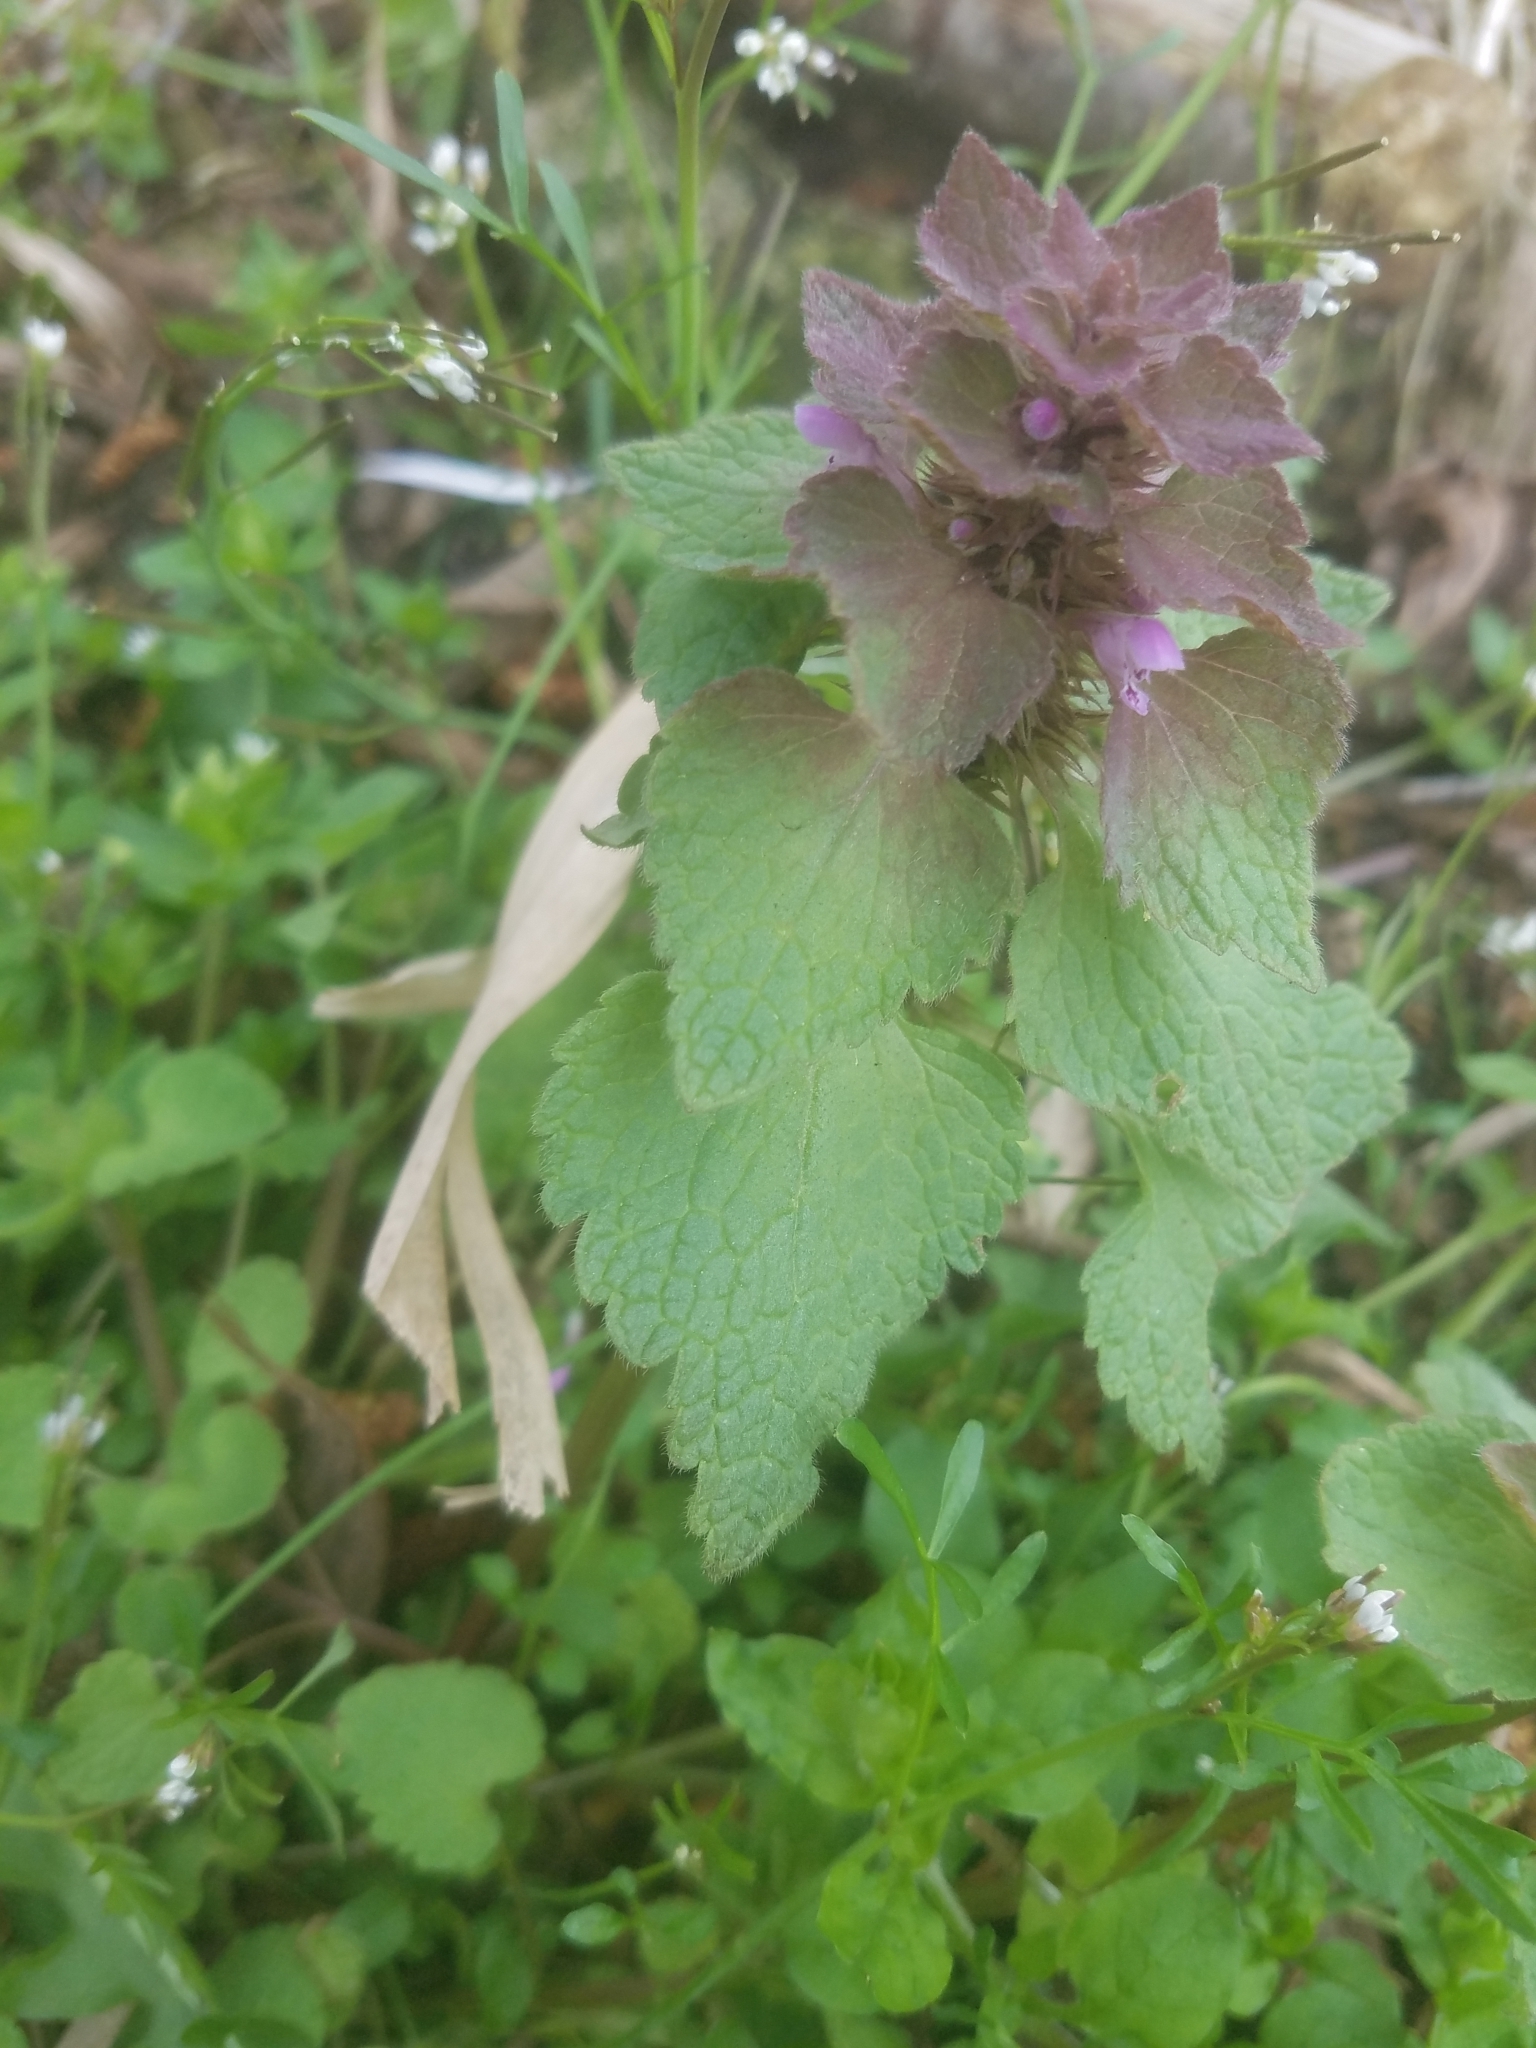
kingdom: Plantae
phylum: Tracheophyta
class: Magnoliopsida
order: Lamiales
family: Lamiaceae
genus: Lamium
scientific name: Lamium purpureum
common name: Red dead-nettle
